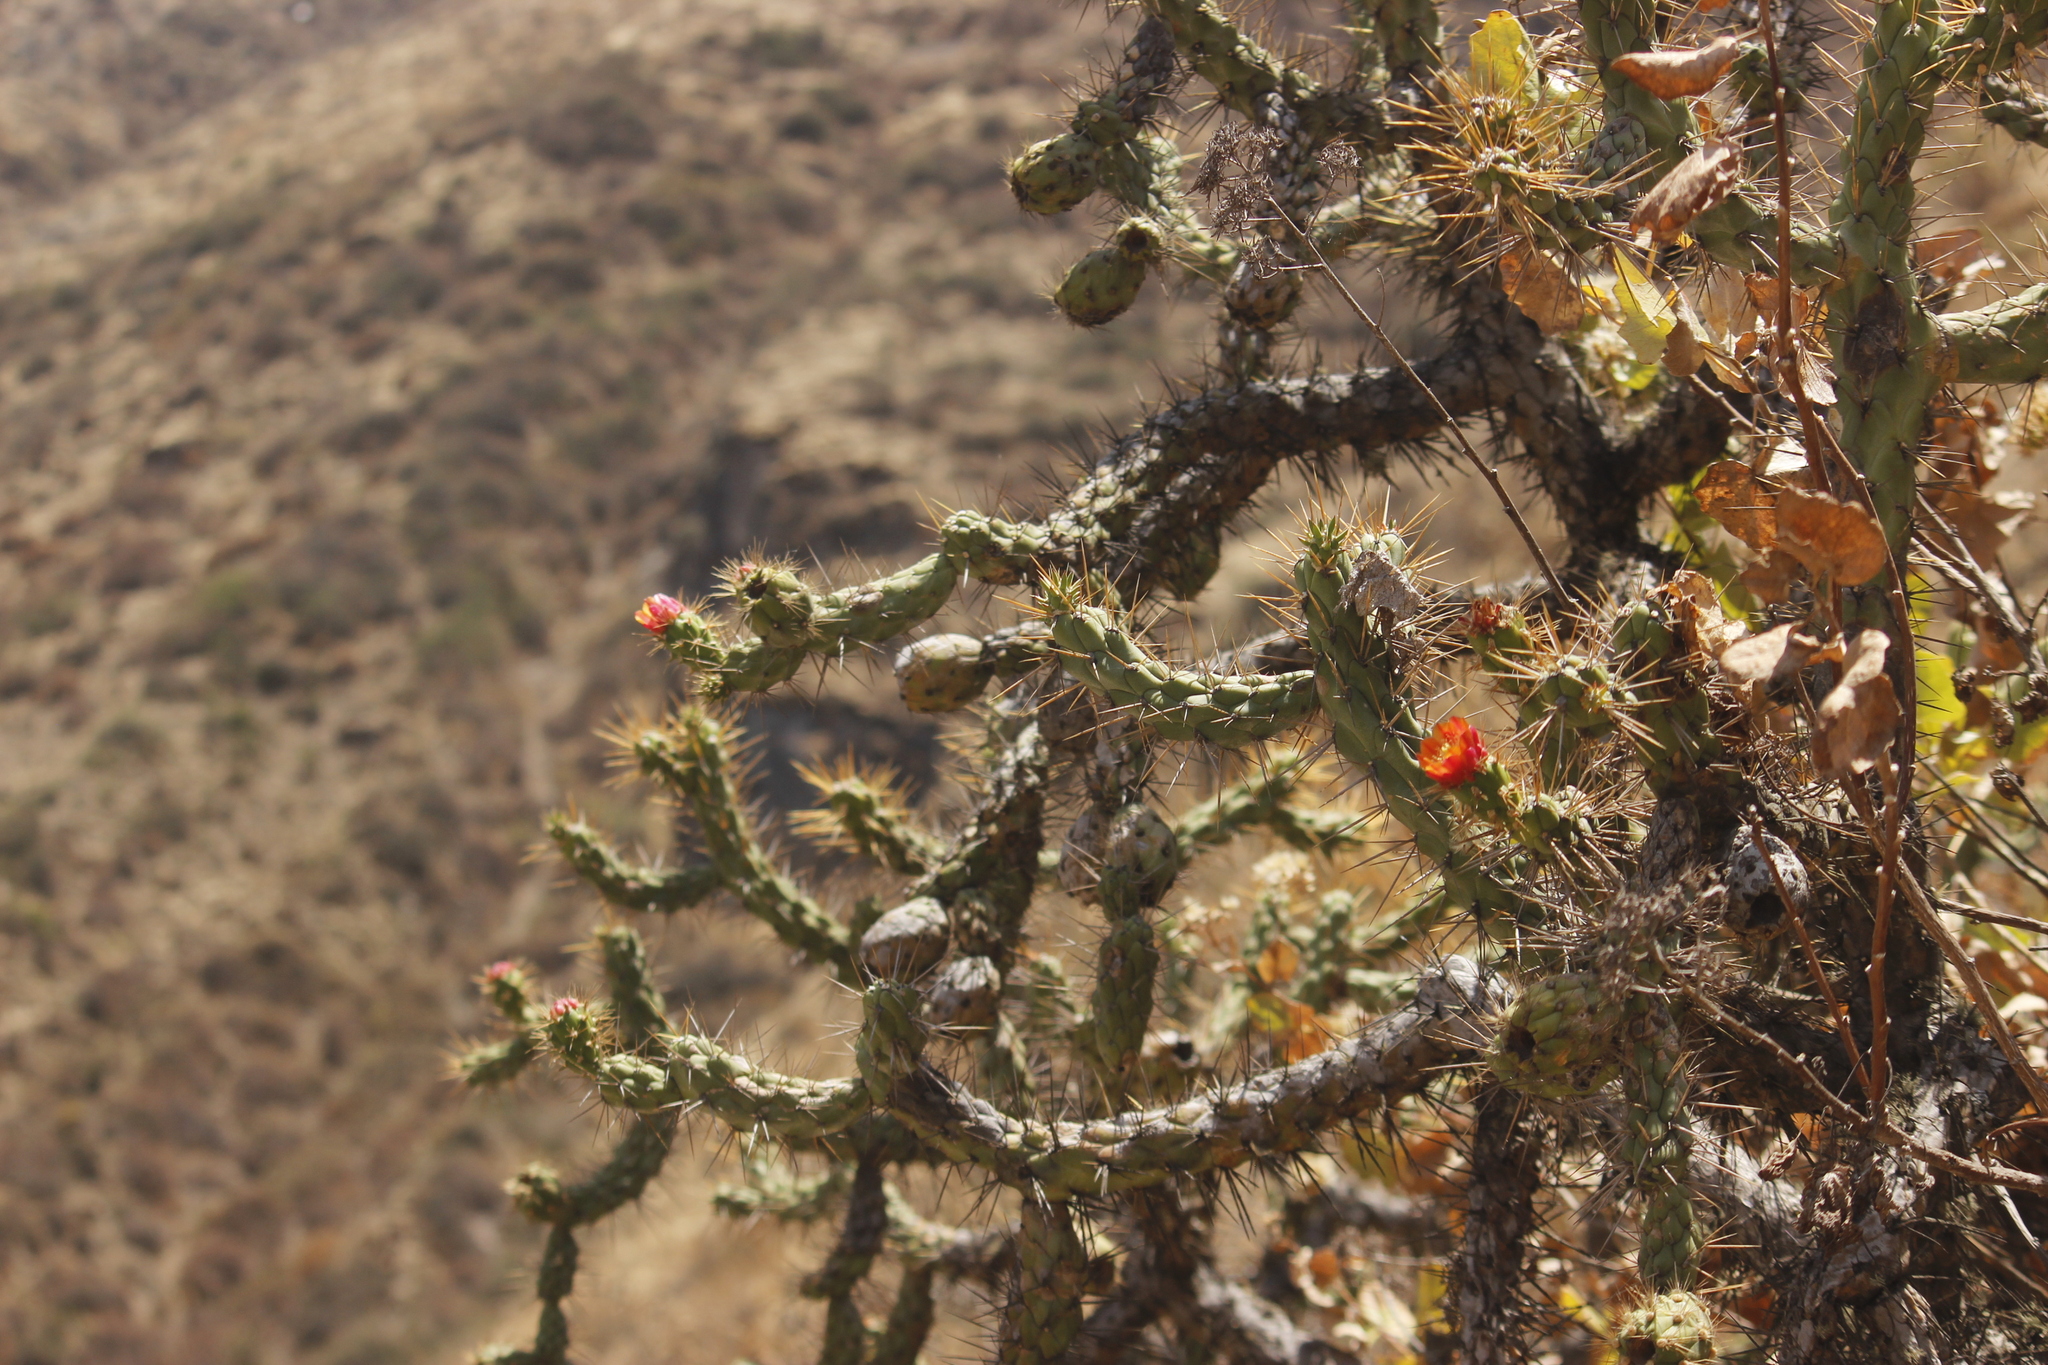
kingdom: Plantae
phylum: Tracheophyta
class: Magnoliopsida
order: Caryophyllales
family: Cactaceae
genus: Austrocylindropuntia
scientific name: Austrocylindropuntia subulata
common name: Eve's needle cactus
